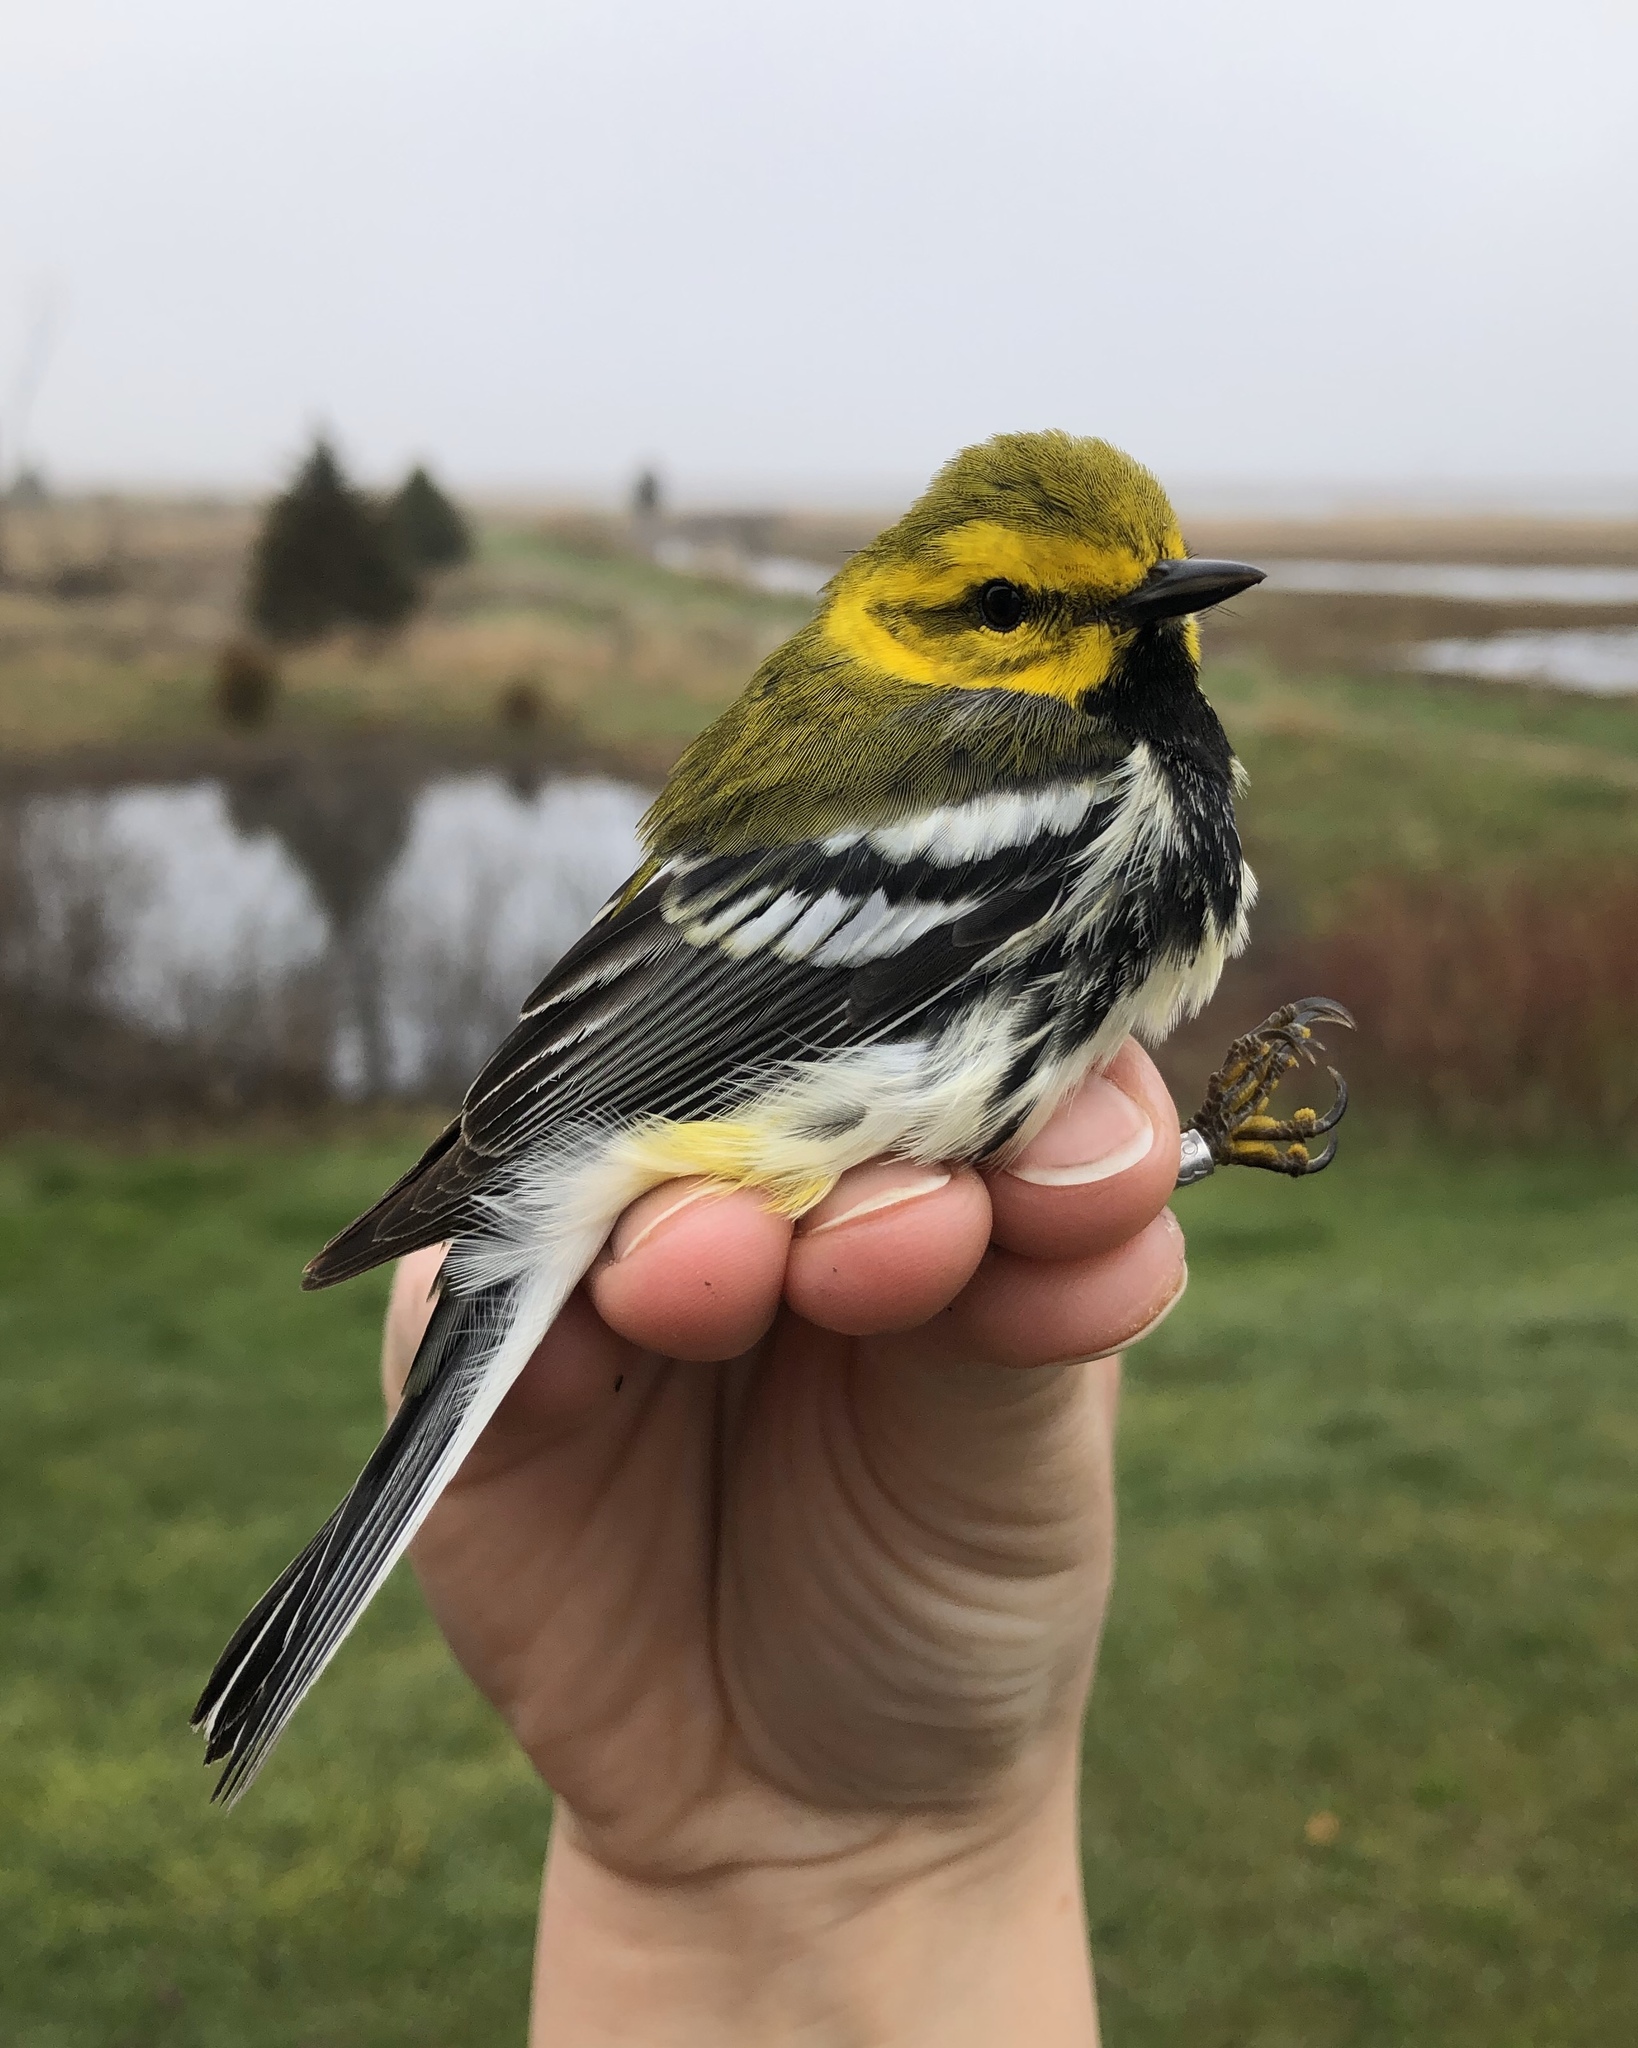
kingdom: Animalia
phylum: Chordata
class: Aves
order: Passeriformes
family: Parulidae
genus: Setophaga
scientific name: Setophaga virens
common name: Black-throated green warbler
